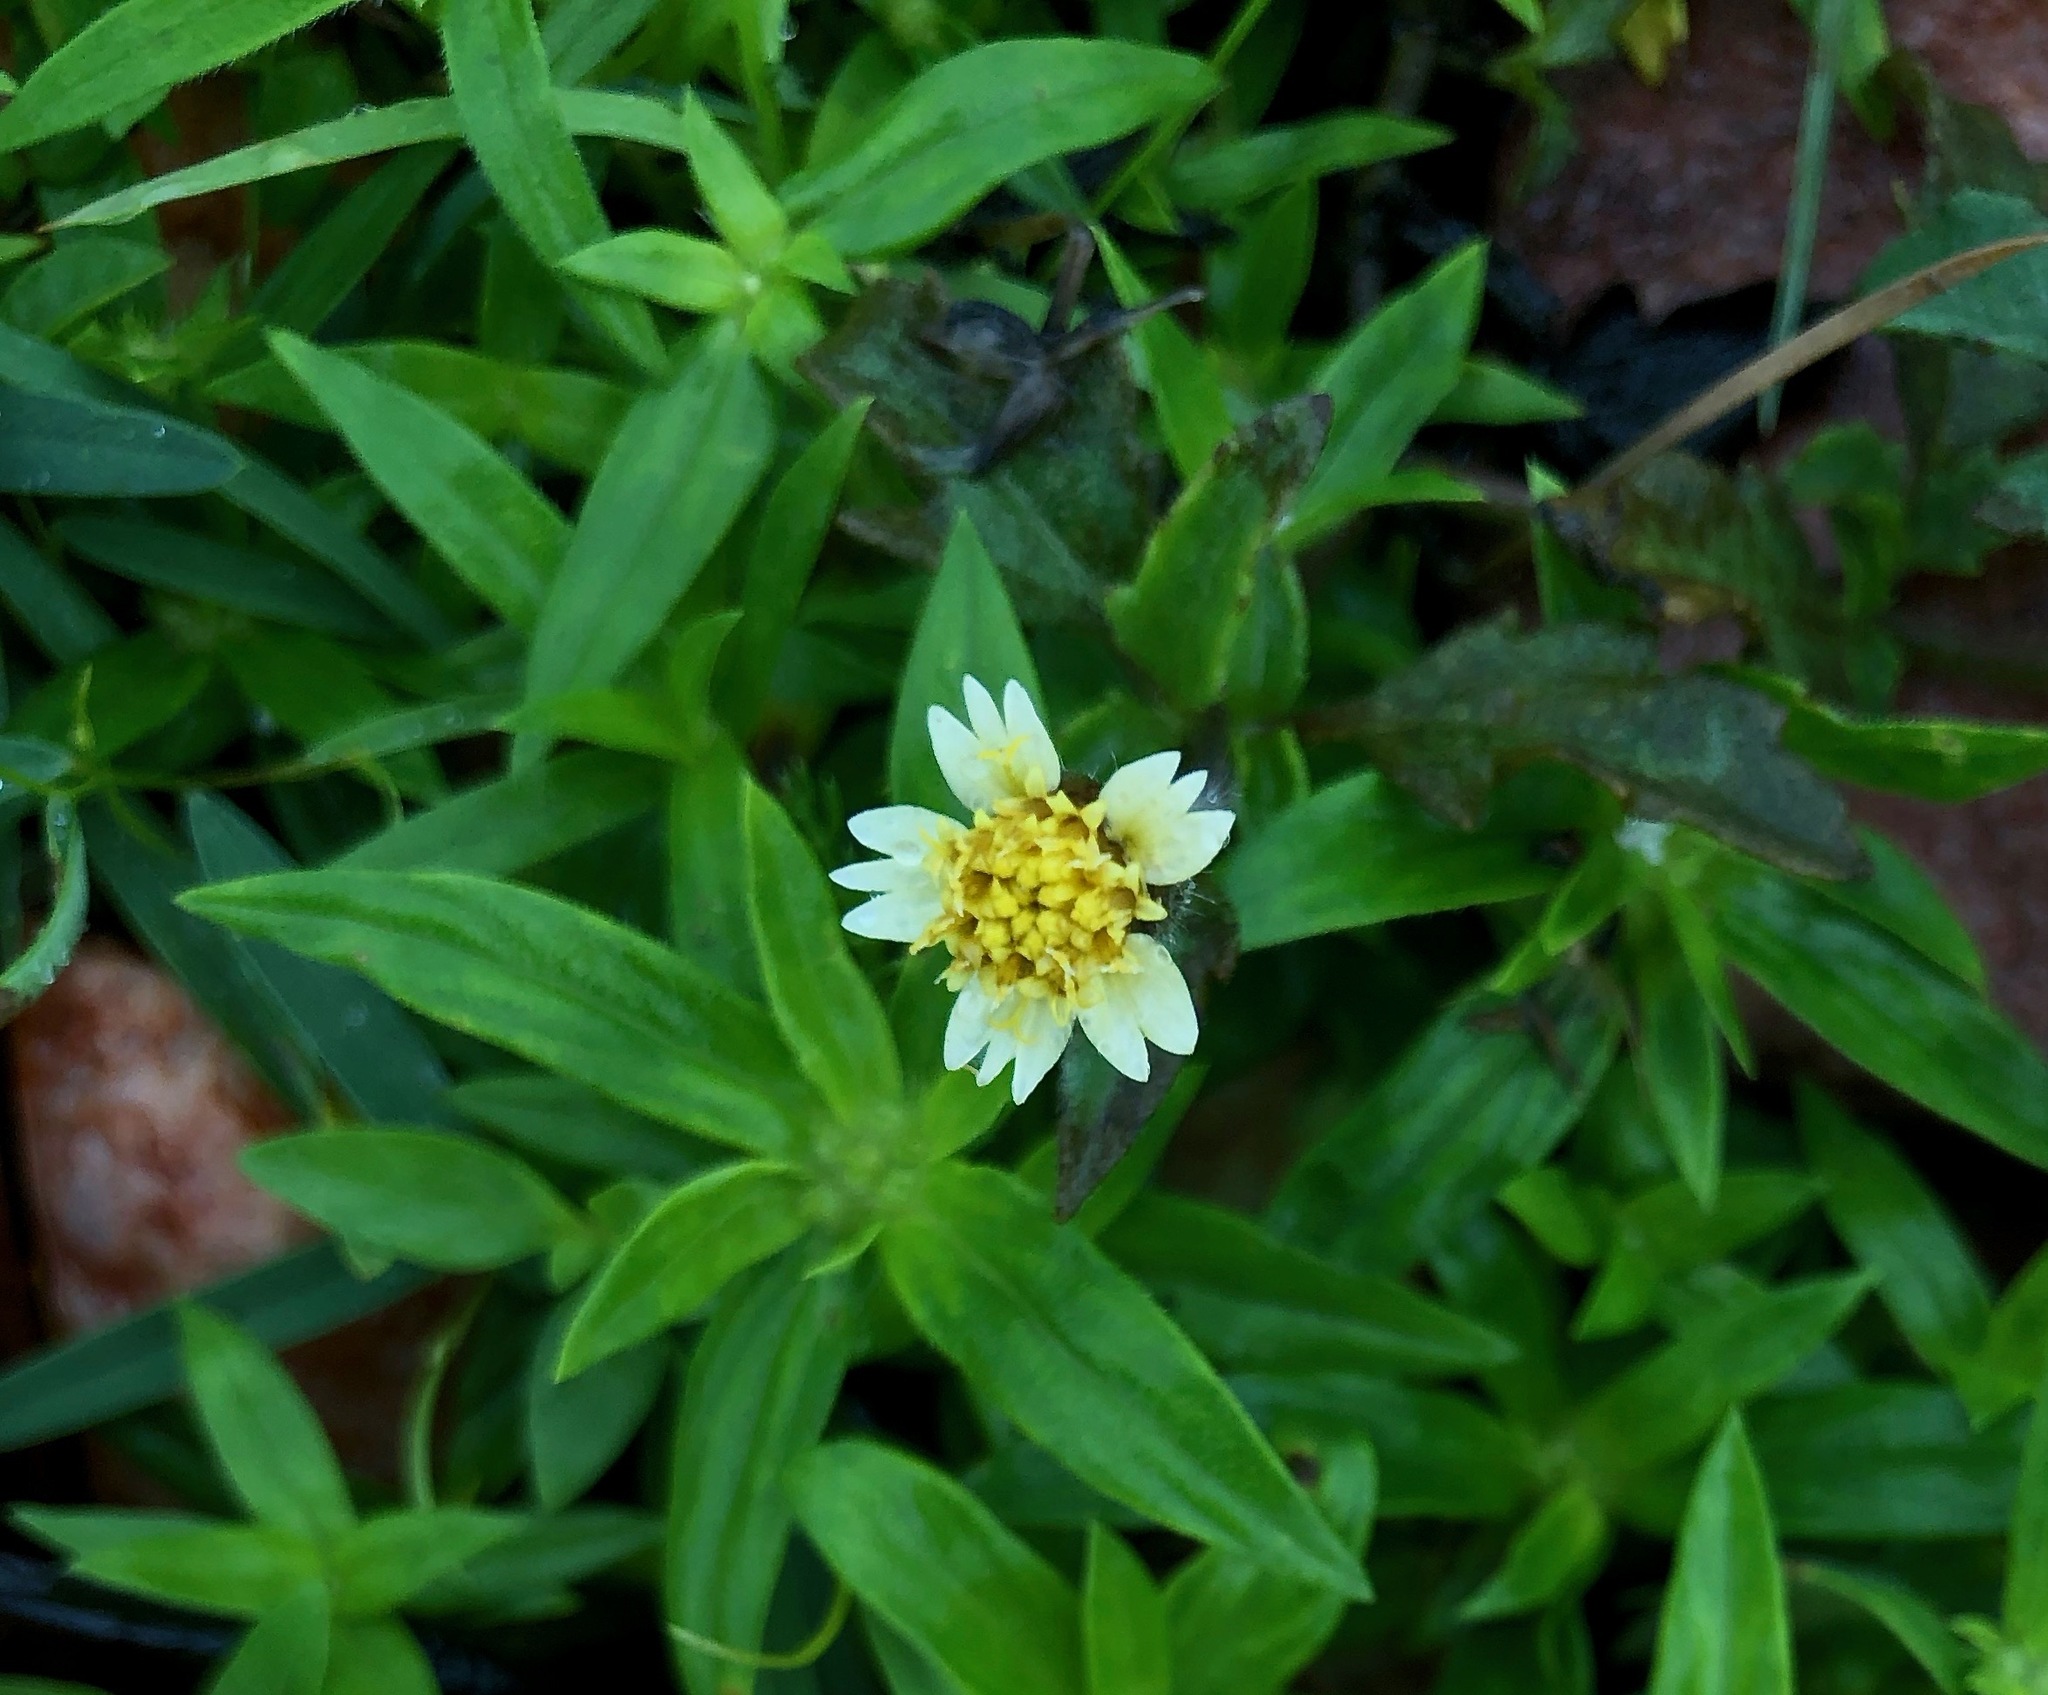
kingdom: Plantae
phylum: Tracheophyta
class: Magnoliopsida
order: Asterales
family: Asteraceae
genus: Tridax
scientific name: Tridax procumbens
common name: Coatbuttons
